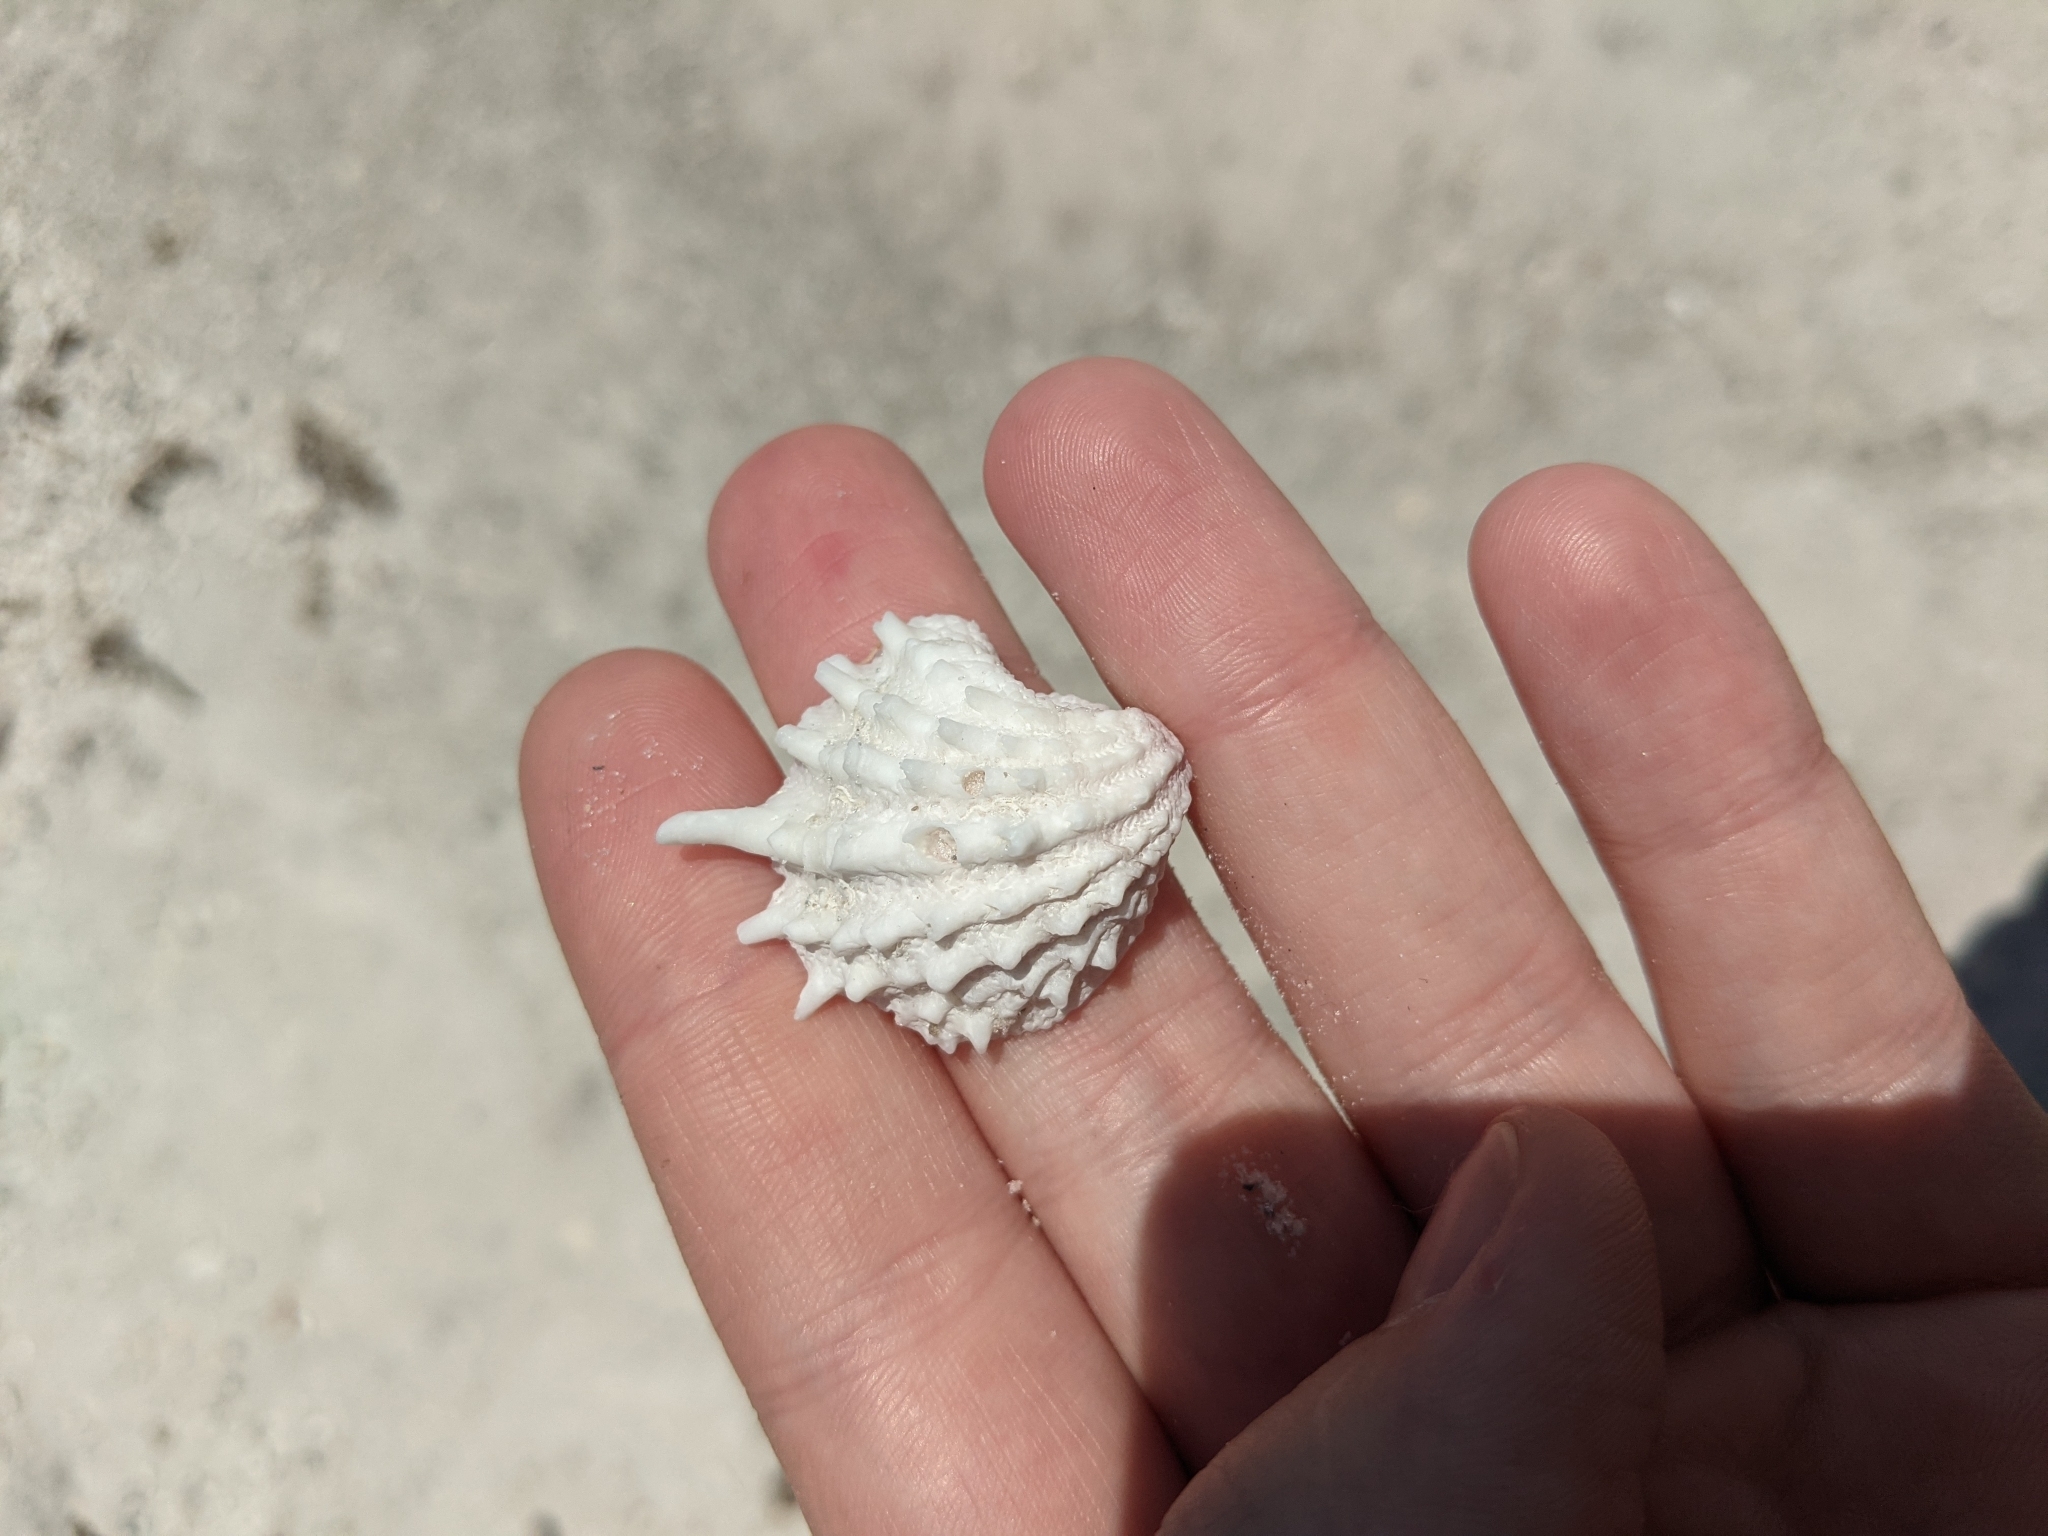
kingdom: Animalia
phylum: Mollusca
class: Bivalvia
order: Venerida
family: Chamidae
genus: Arcinella
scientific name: Arcinella cornuta
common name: Florida spiny jewel box
